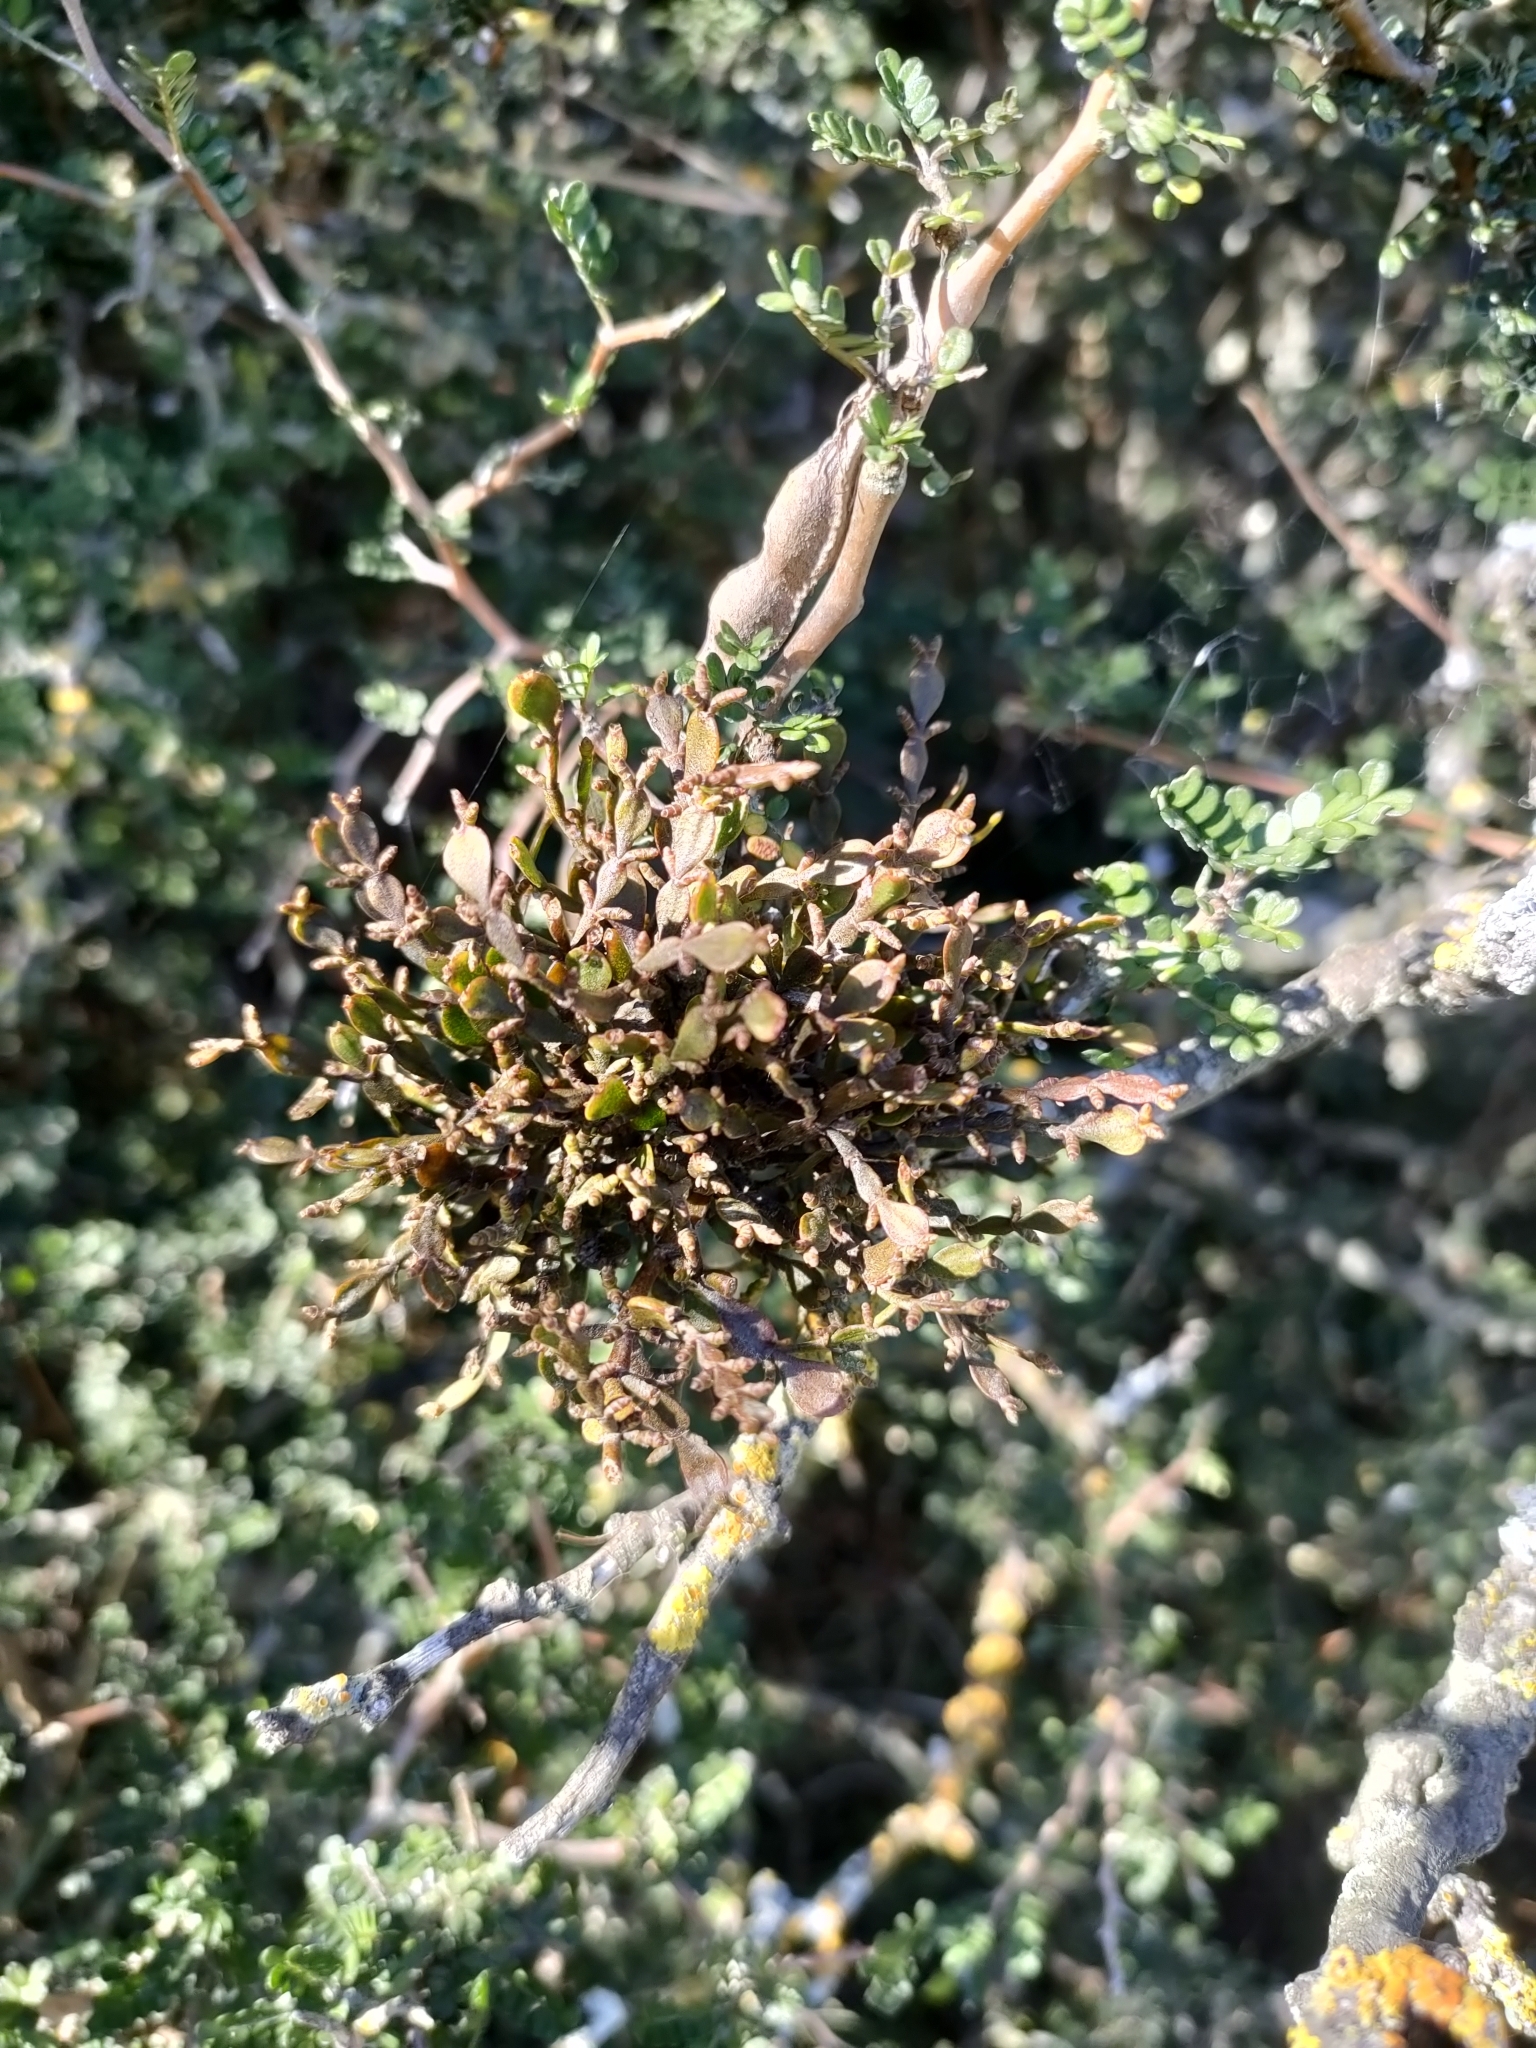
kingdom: Plantae
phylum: Tracheophyta
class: Magnoliopsida
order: Santalales
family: Viscaceae
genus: Korthalsella
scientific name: Korthalsella lindsayi
